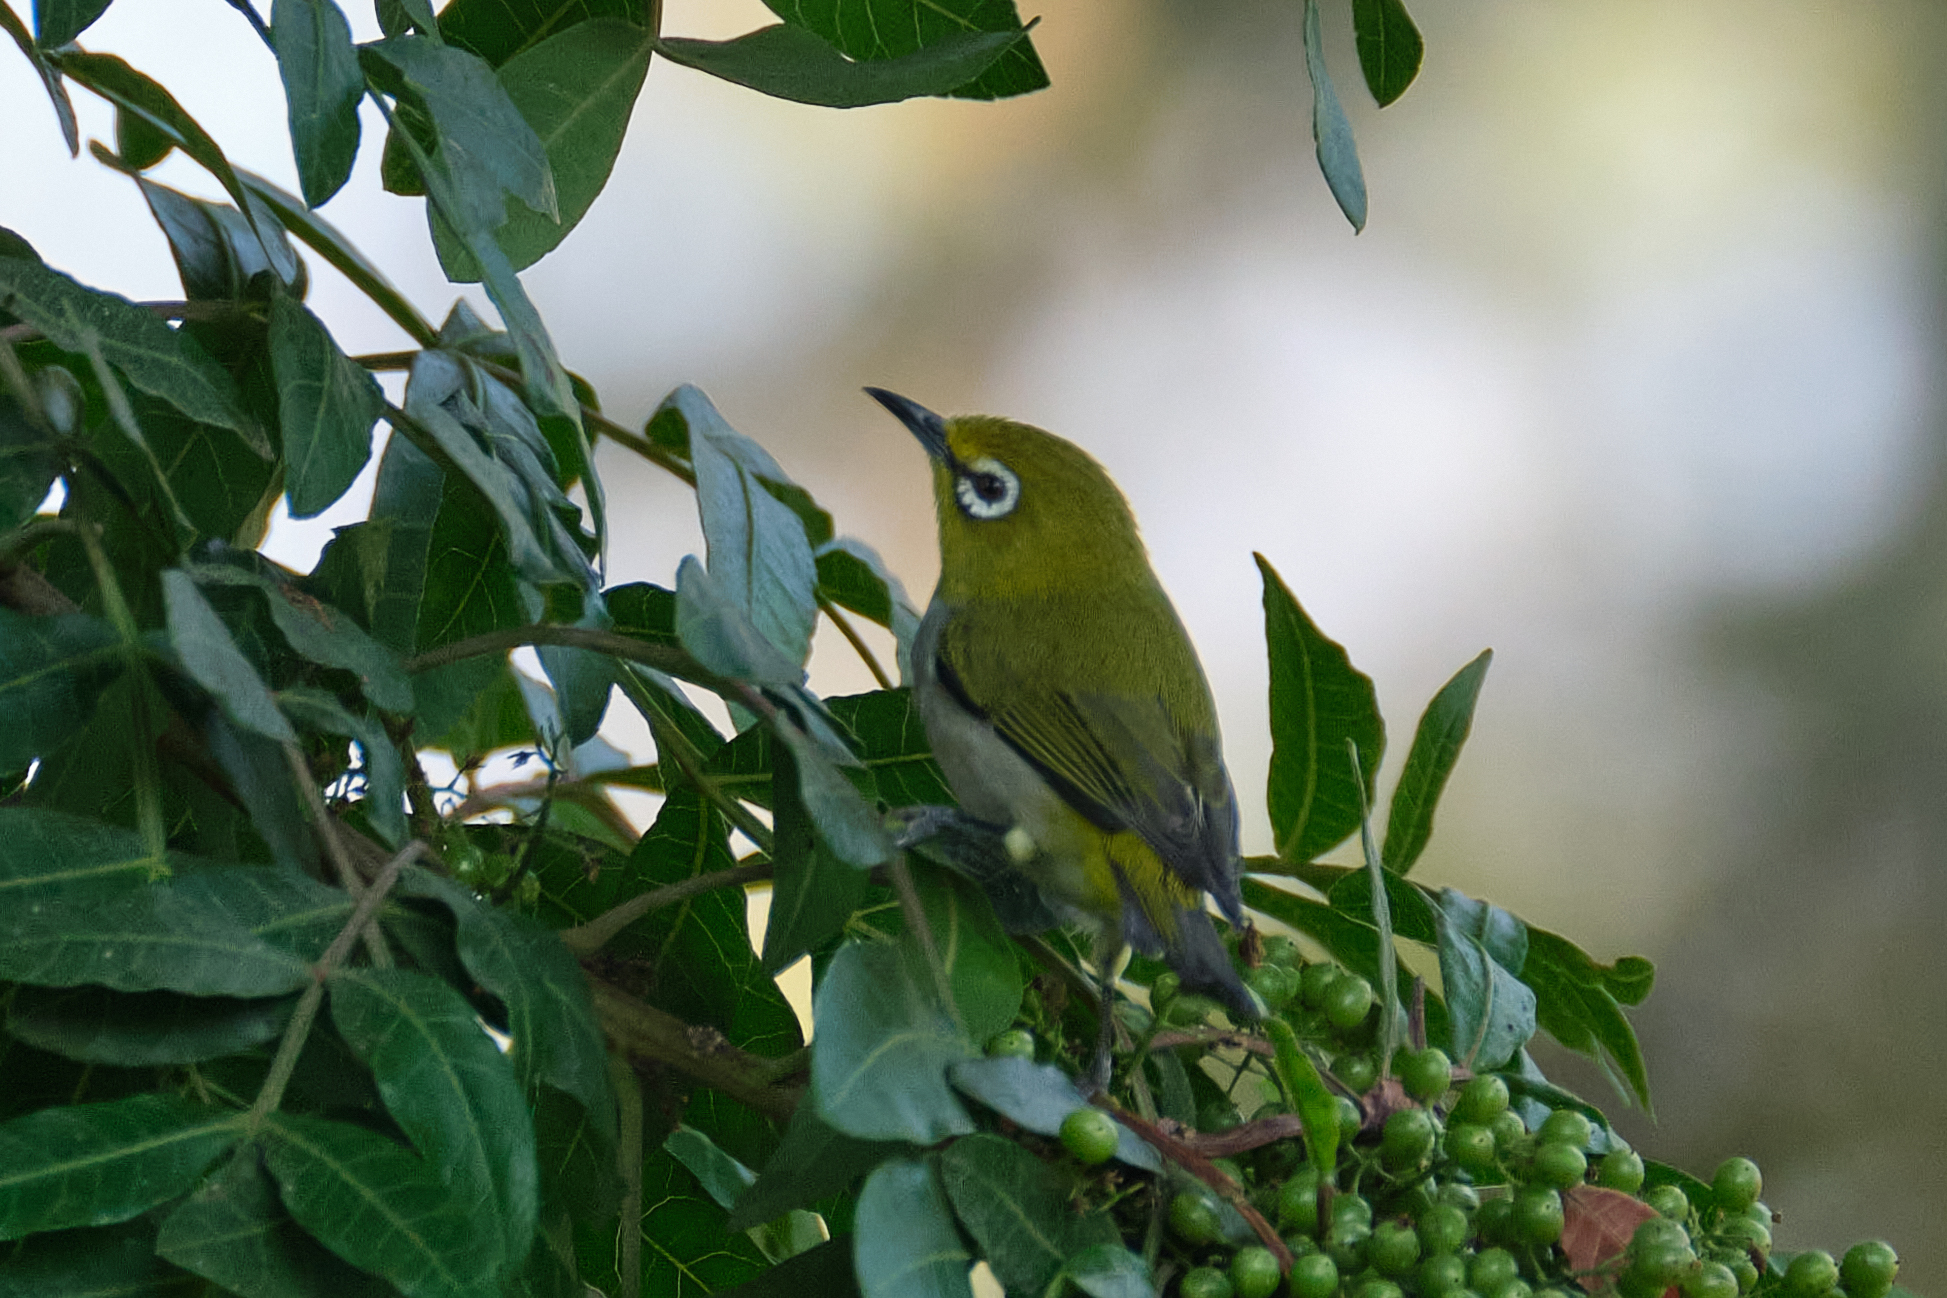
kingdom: Animalia
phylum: Chordata
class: Aves
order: Passeriformes
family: Zosteropidae
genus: Zosterops
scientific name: Zosterops simplex
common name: Swinhoe's white-eye
